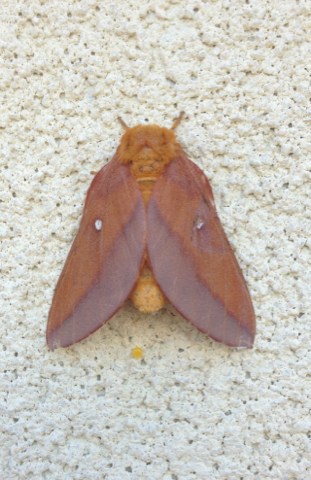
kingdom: Animalia
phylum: Arthropoda
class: Insecta
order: Lepidoptera
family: Saturniidae
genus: Anisota
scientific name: Anisota virginiensis
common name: Pink striped oakworm moth
